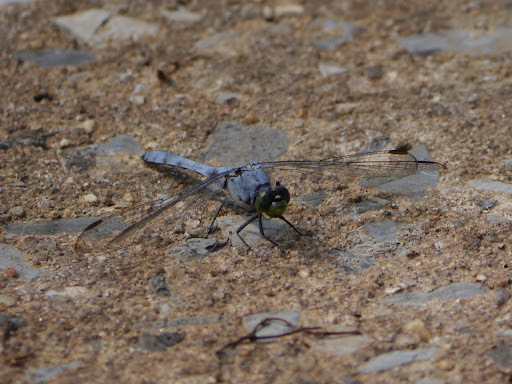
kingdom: Animalia
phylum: Arthropoda
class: Insecta
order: Odonata
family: Libellulidae
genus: Erythemis
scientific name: Erythemis simplicicollis
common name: Eastern pondhawk
